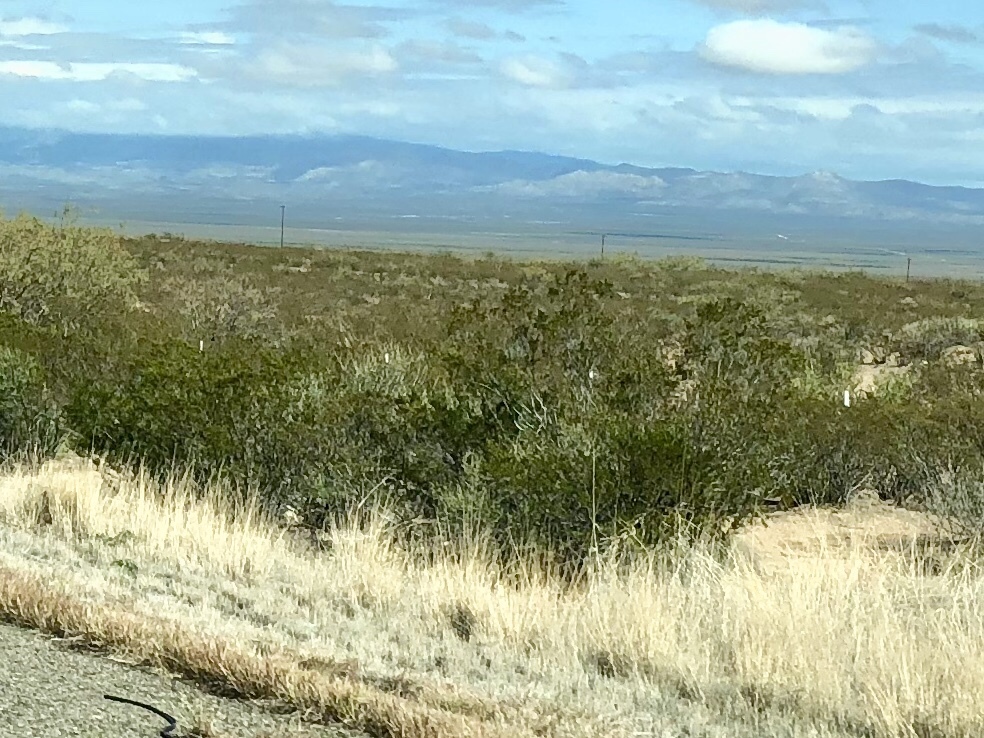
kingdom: Plantae
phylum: Tracheophyta
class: Magnoliopsida
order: Zygophyllales
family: Zygophyllaceae
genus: Larrea
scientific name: Larrea tridentata
